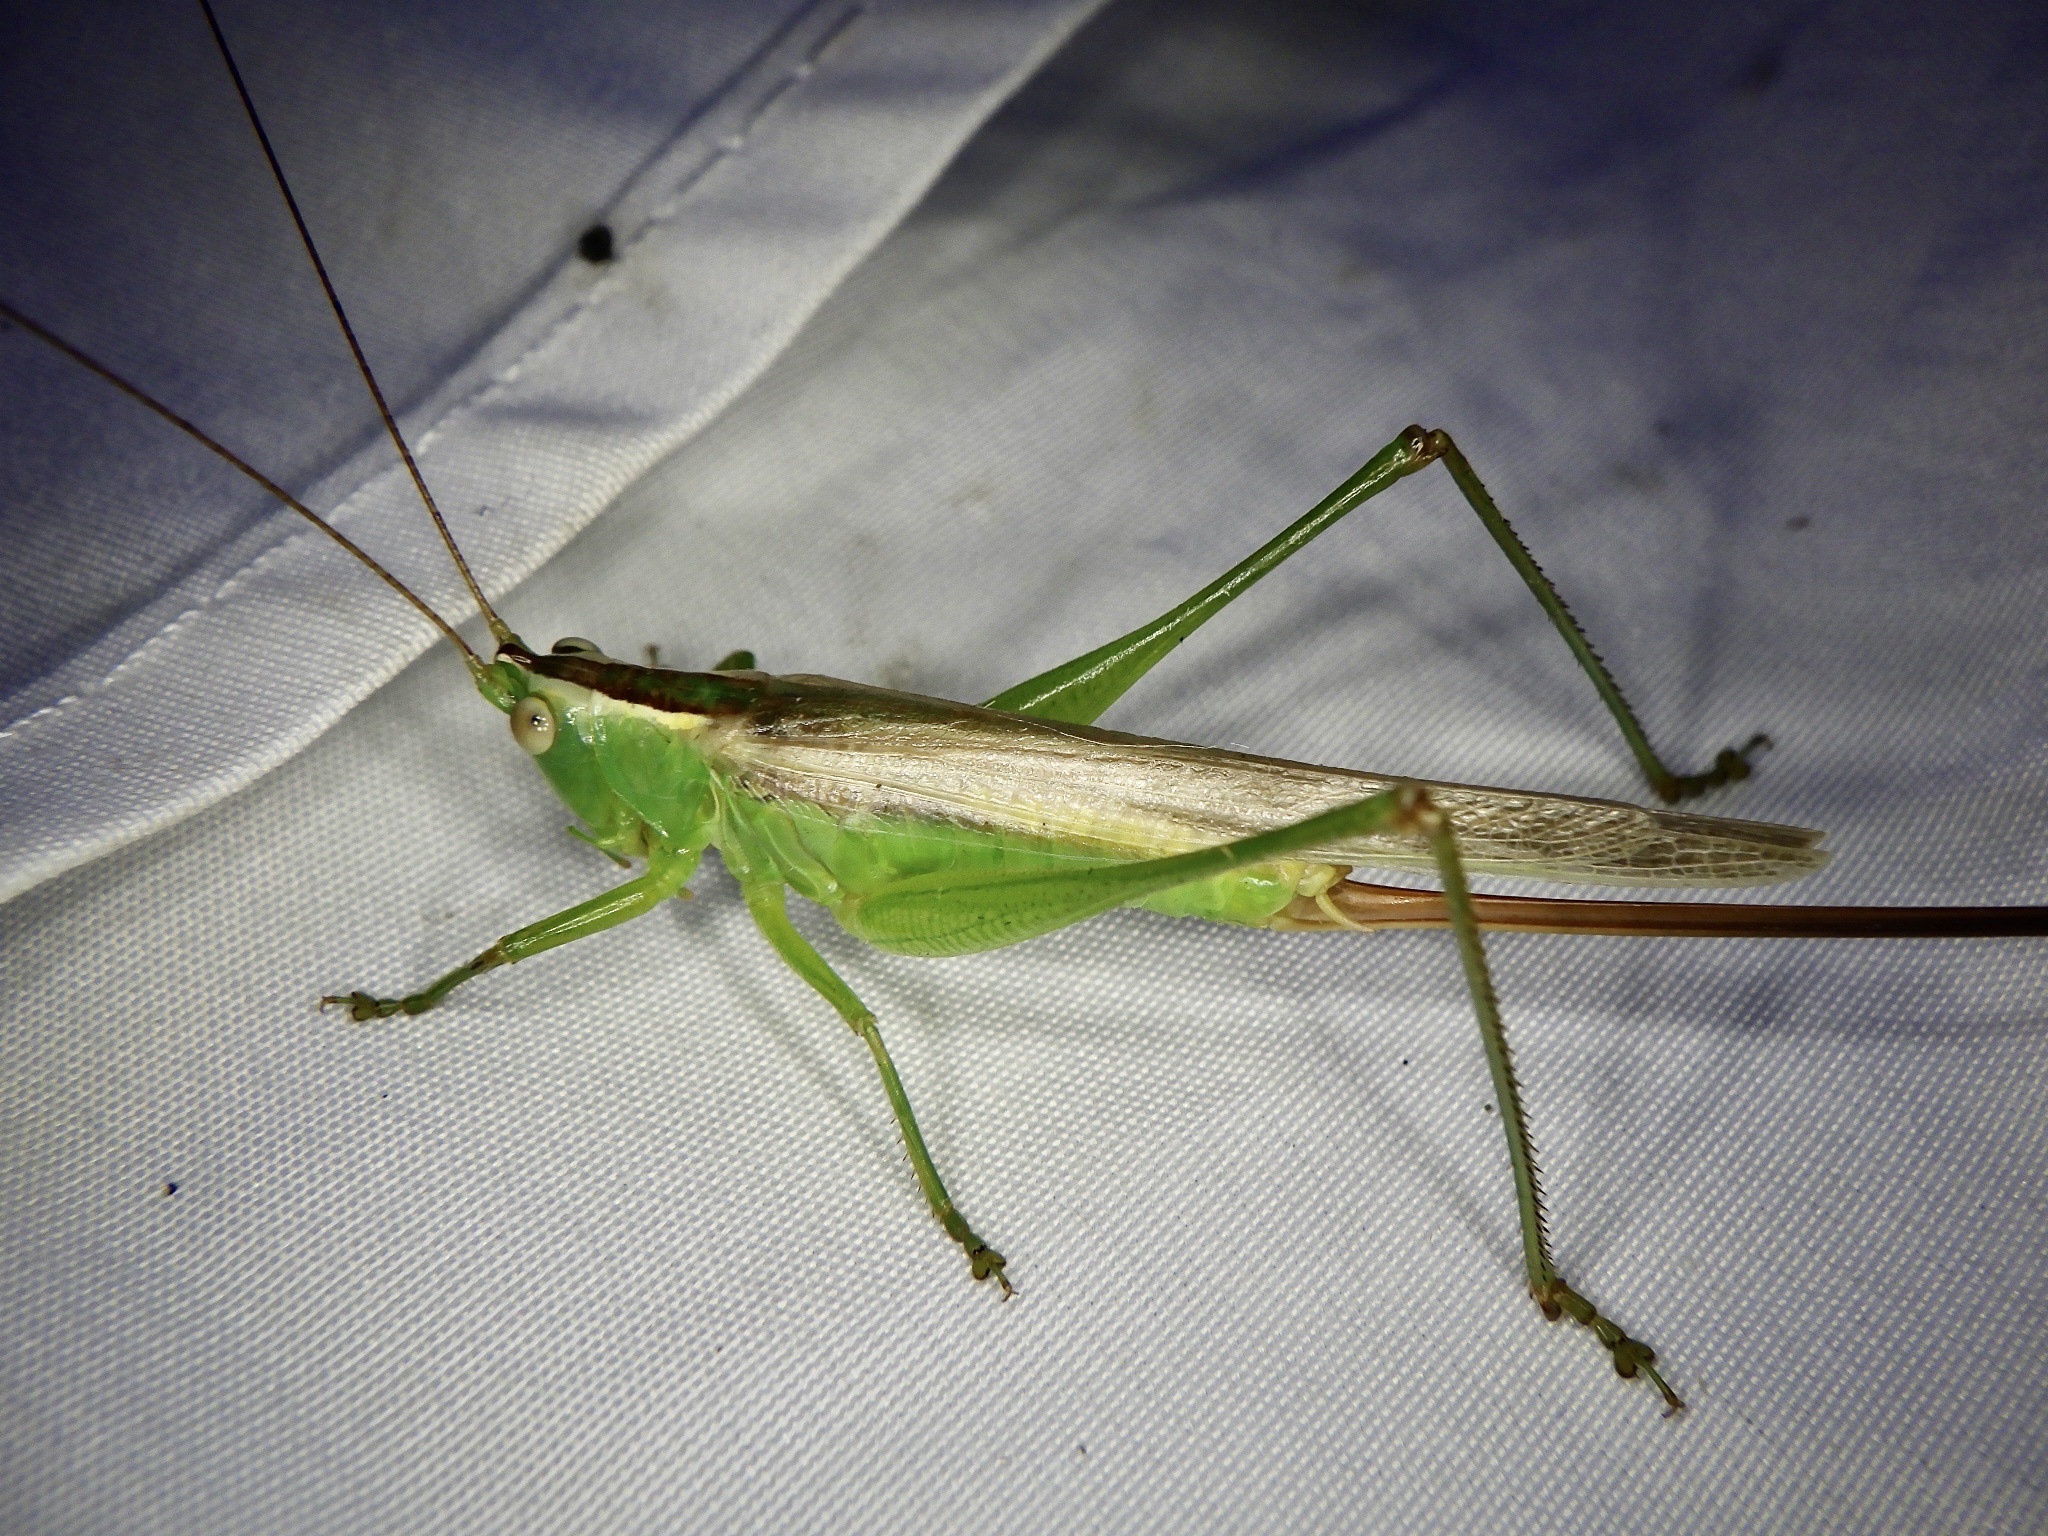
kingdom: Animalia
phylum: Arthropoda
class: Insecta
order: Orthoptera
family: Tettigoniidae
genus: Conocephalus
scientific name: Conocephalus exemptus
